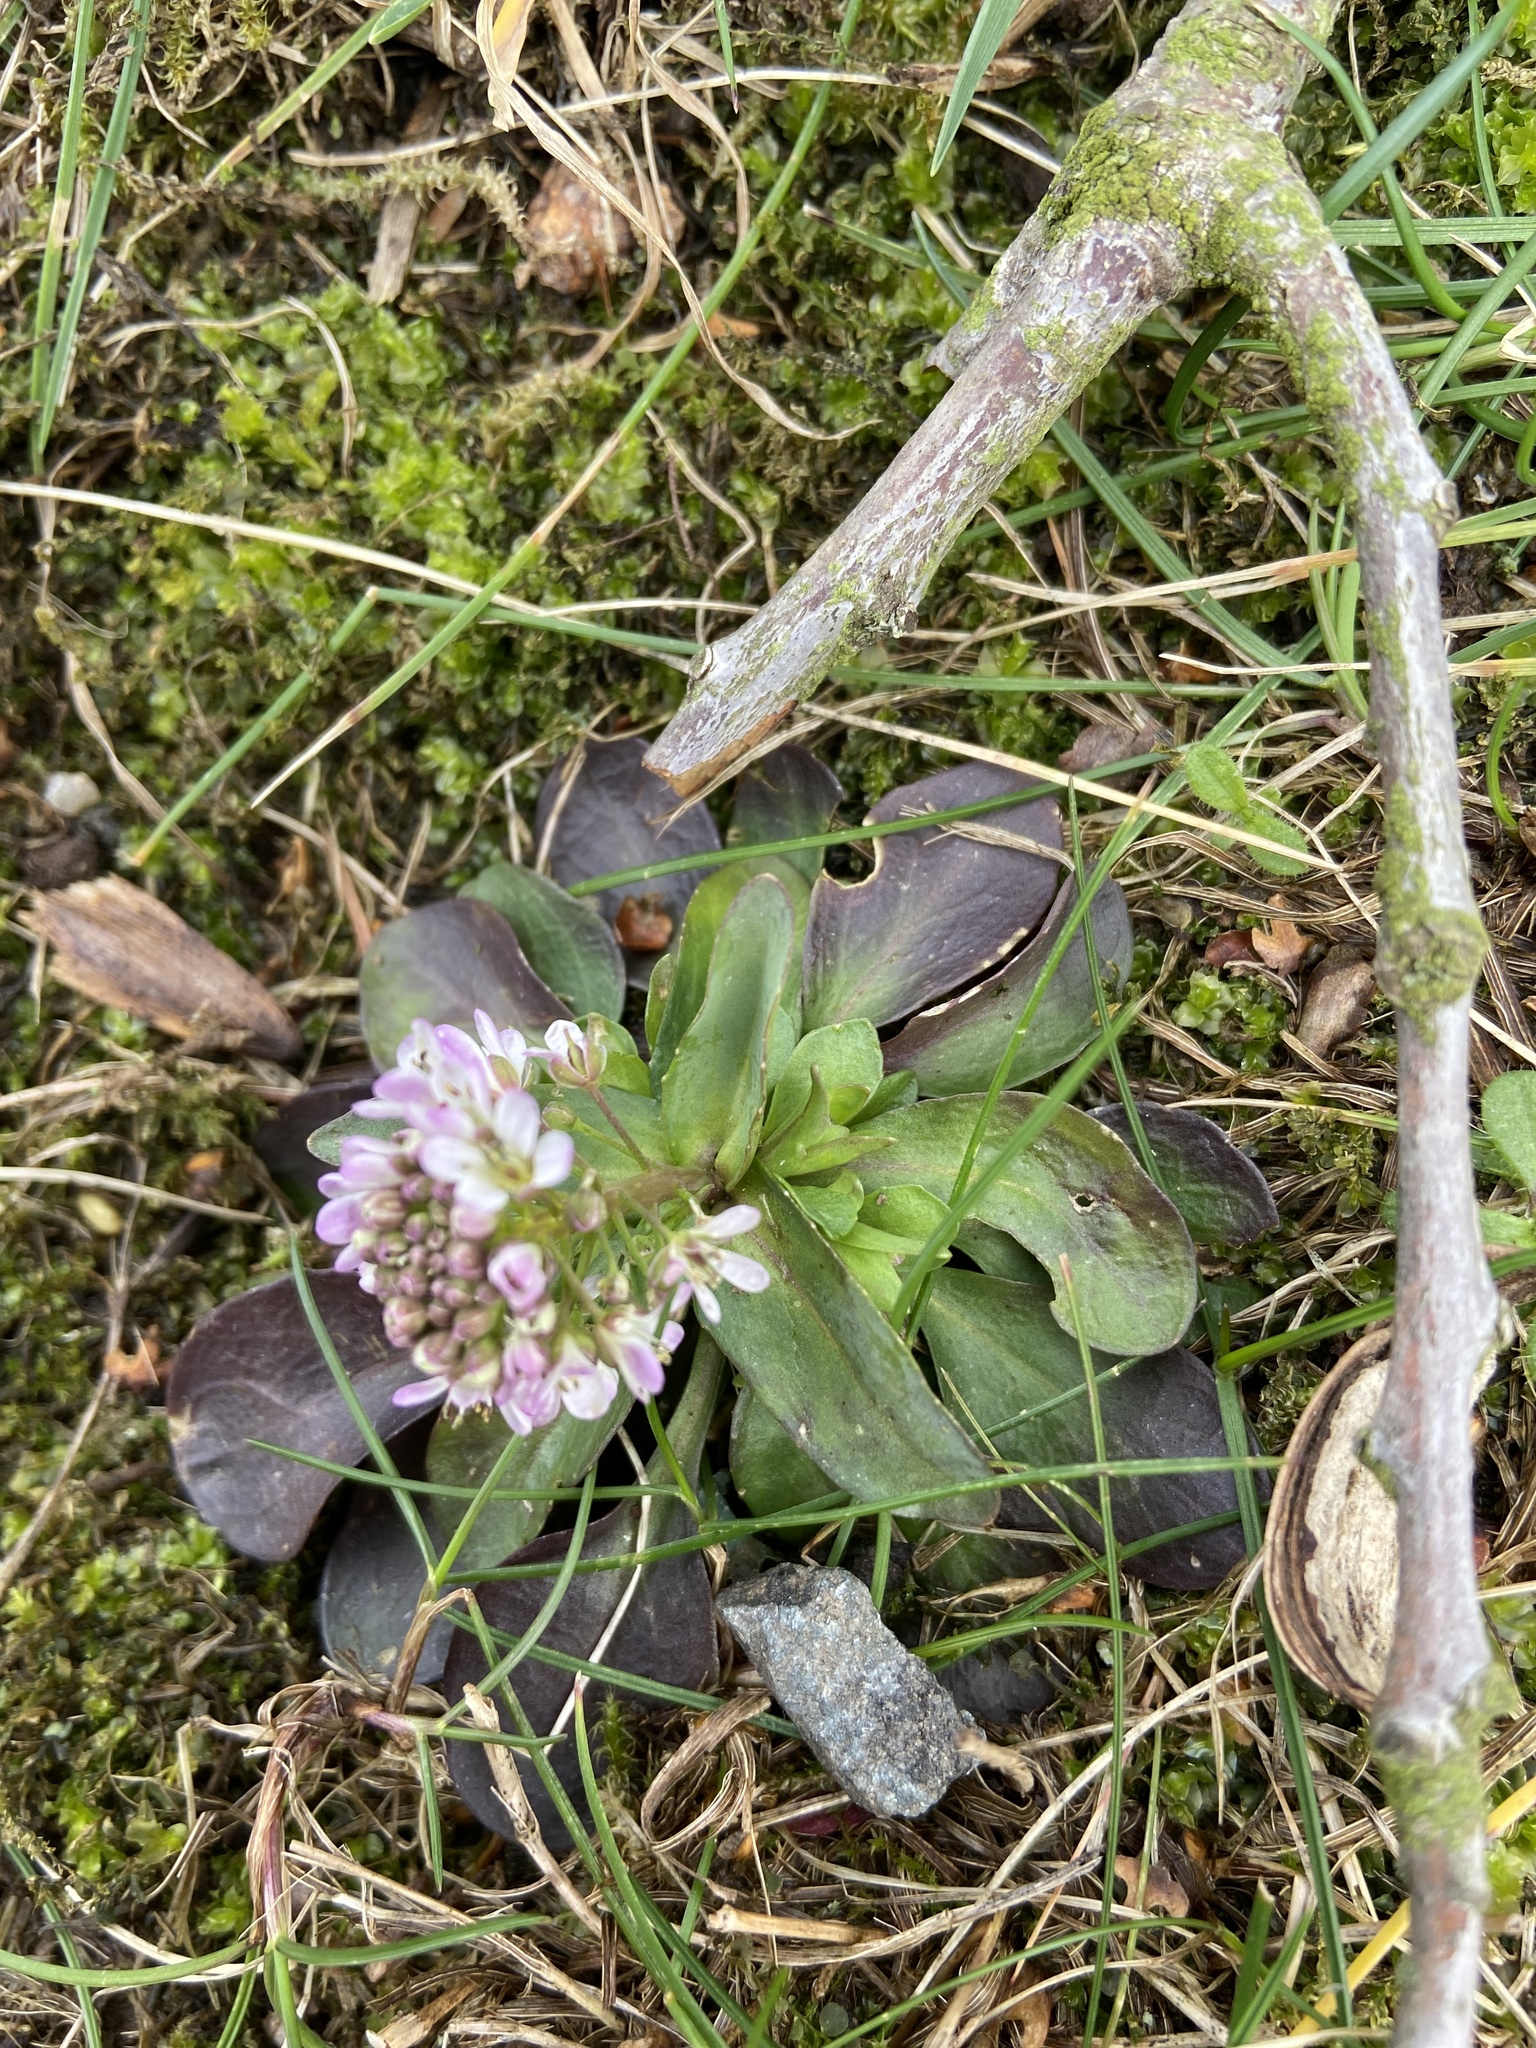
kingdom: Plantae
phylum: Tracheophyta
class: Magnoliopsida
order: Brassicales
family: Brassicaceae
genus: Noccaea
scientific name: Noccaea caerulescens
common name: Alpine pennycress
